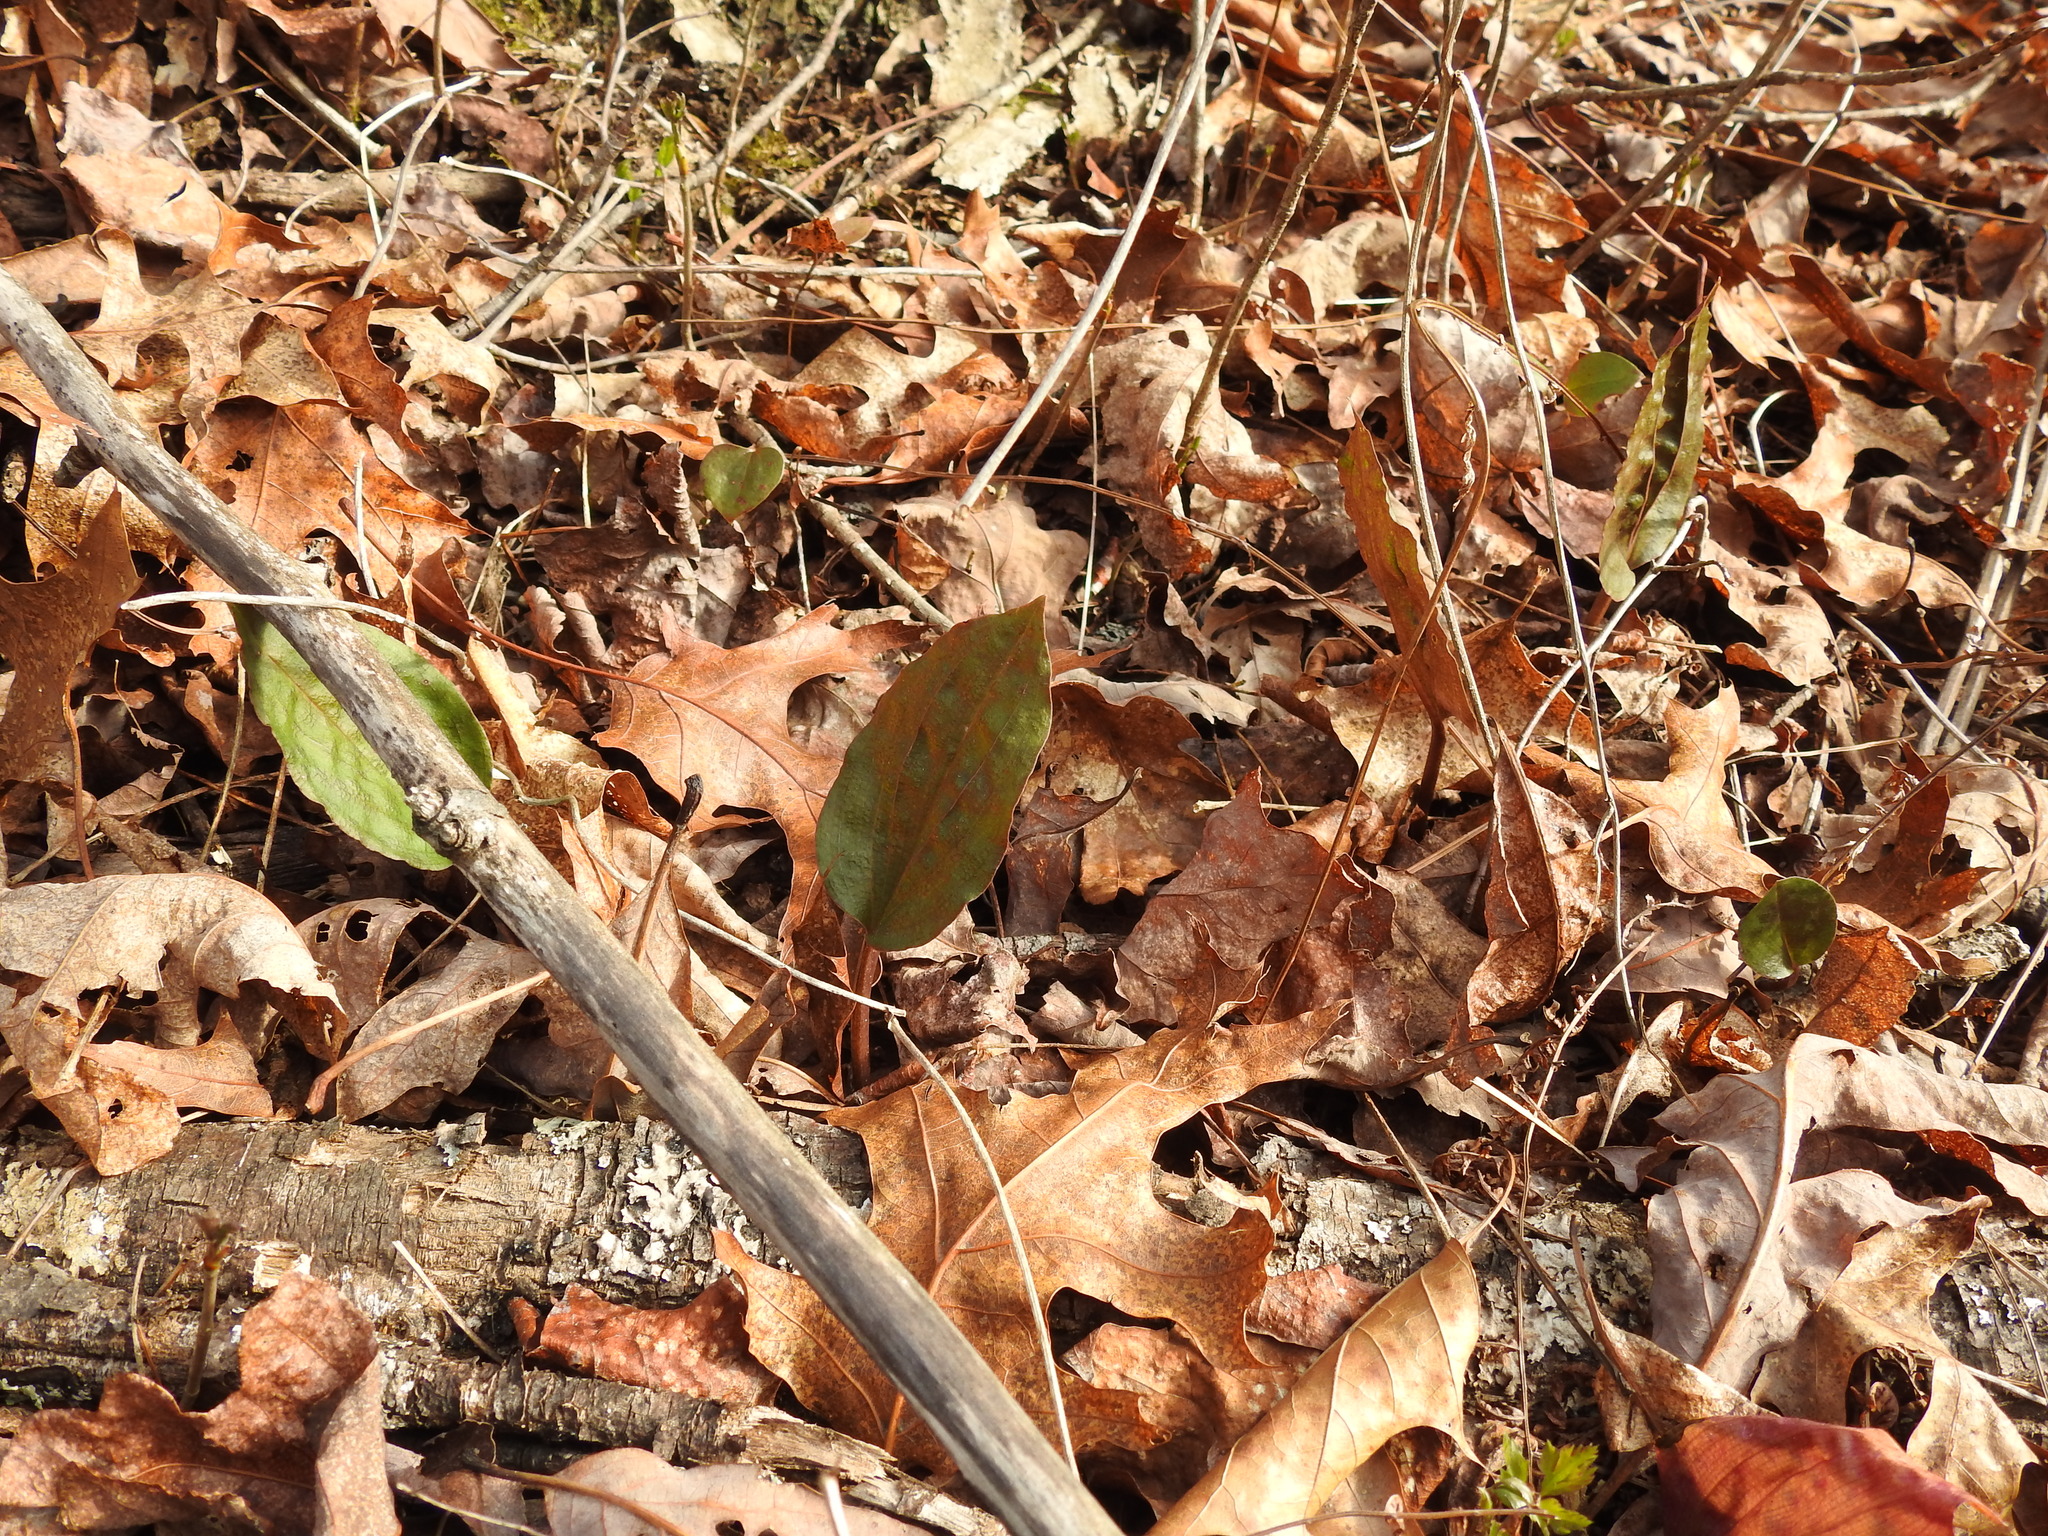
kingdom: Plantae
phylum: Tracheophyta
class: Liliopsida
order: Asparagales
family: Orchidaceae
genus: Tipularia
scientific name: Tipularia discolor
